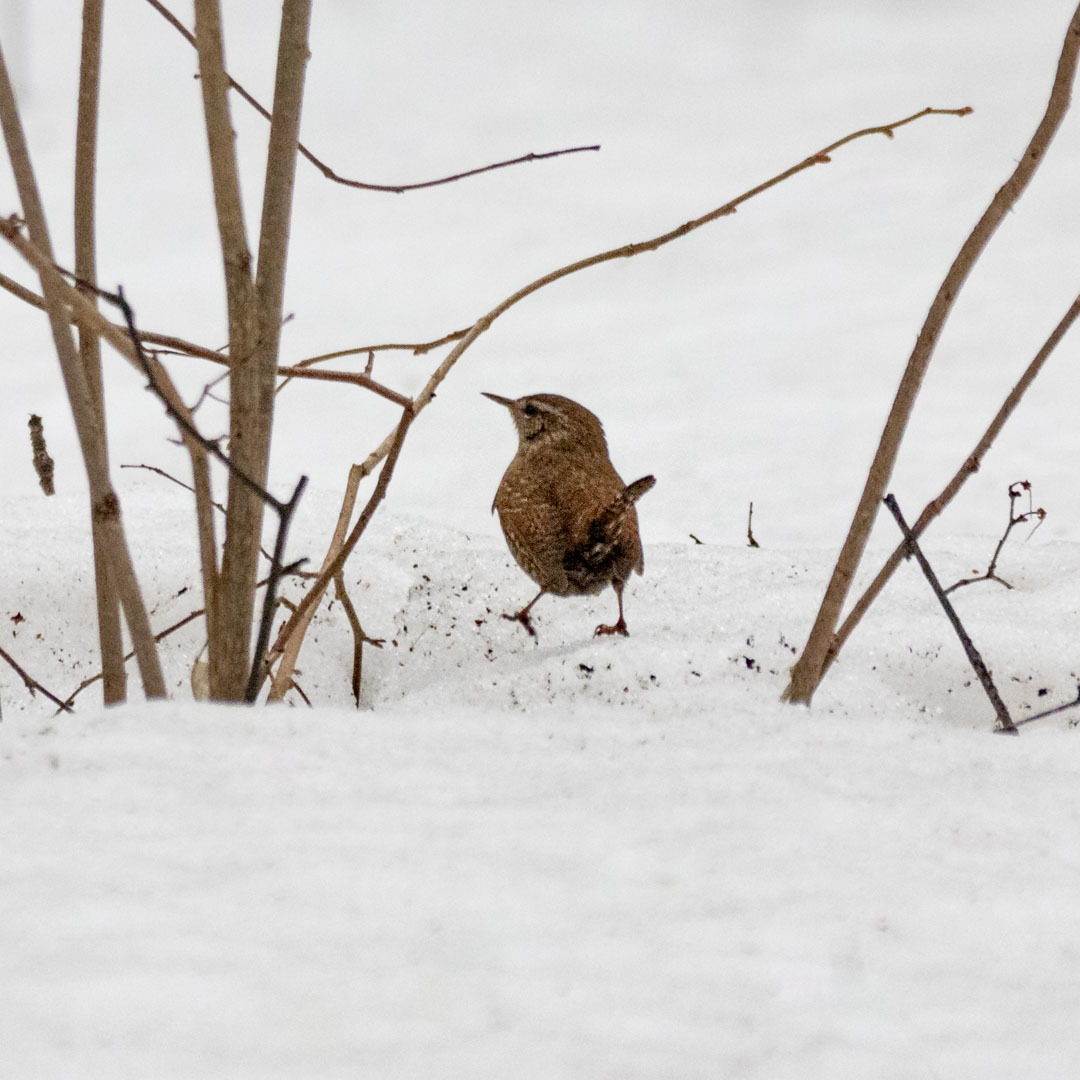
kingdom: Animalia
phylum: Chordata
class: Aves
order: Passeriformes
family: Troglodytidae
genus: Troglodytes
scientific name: Troglodytes troglodytes
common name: Eurasian wren
